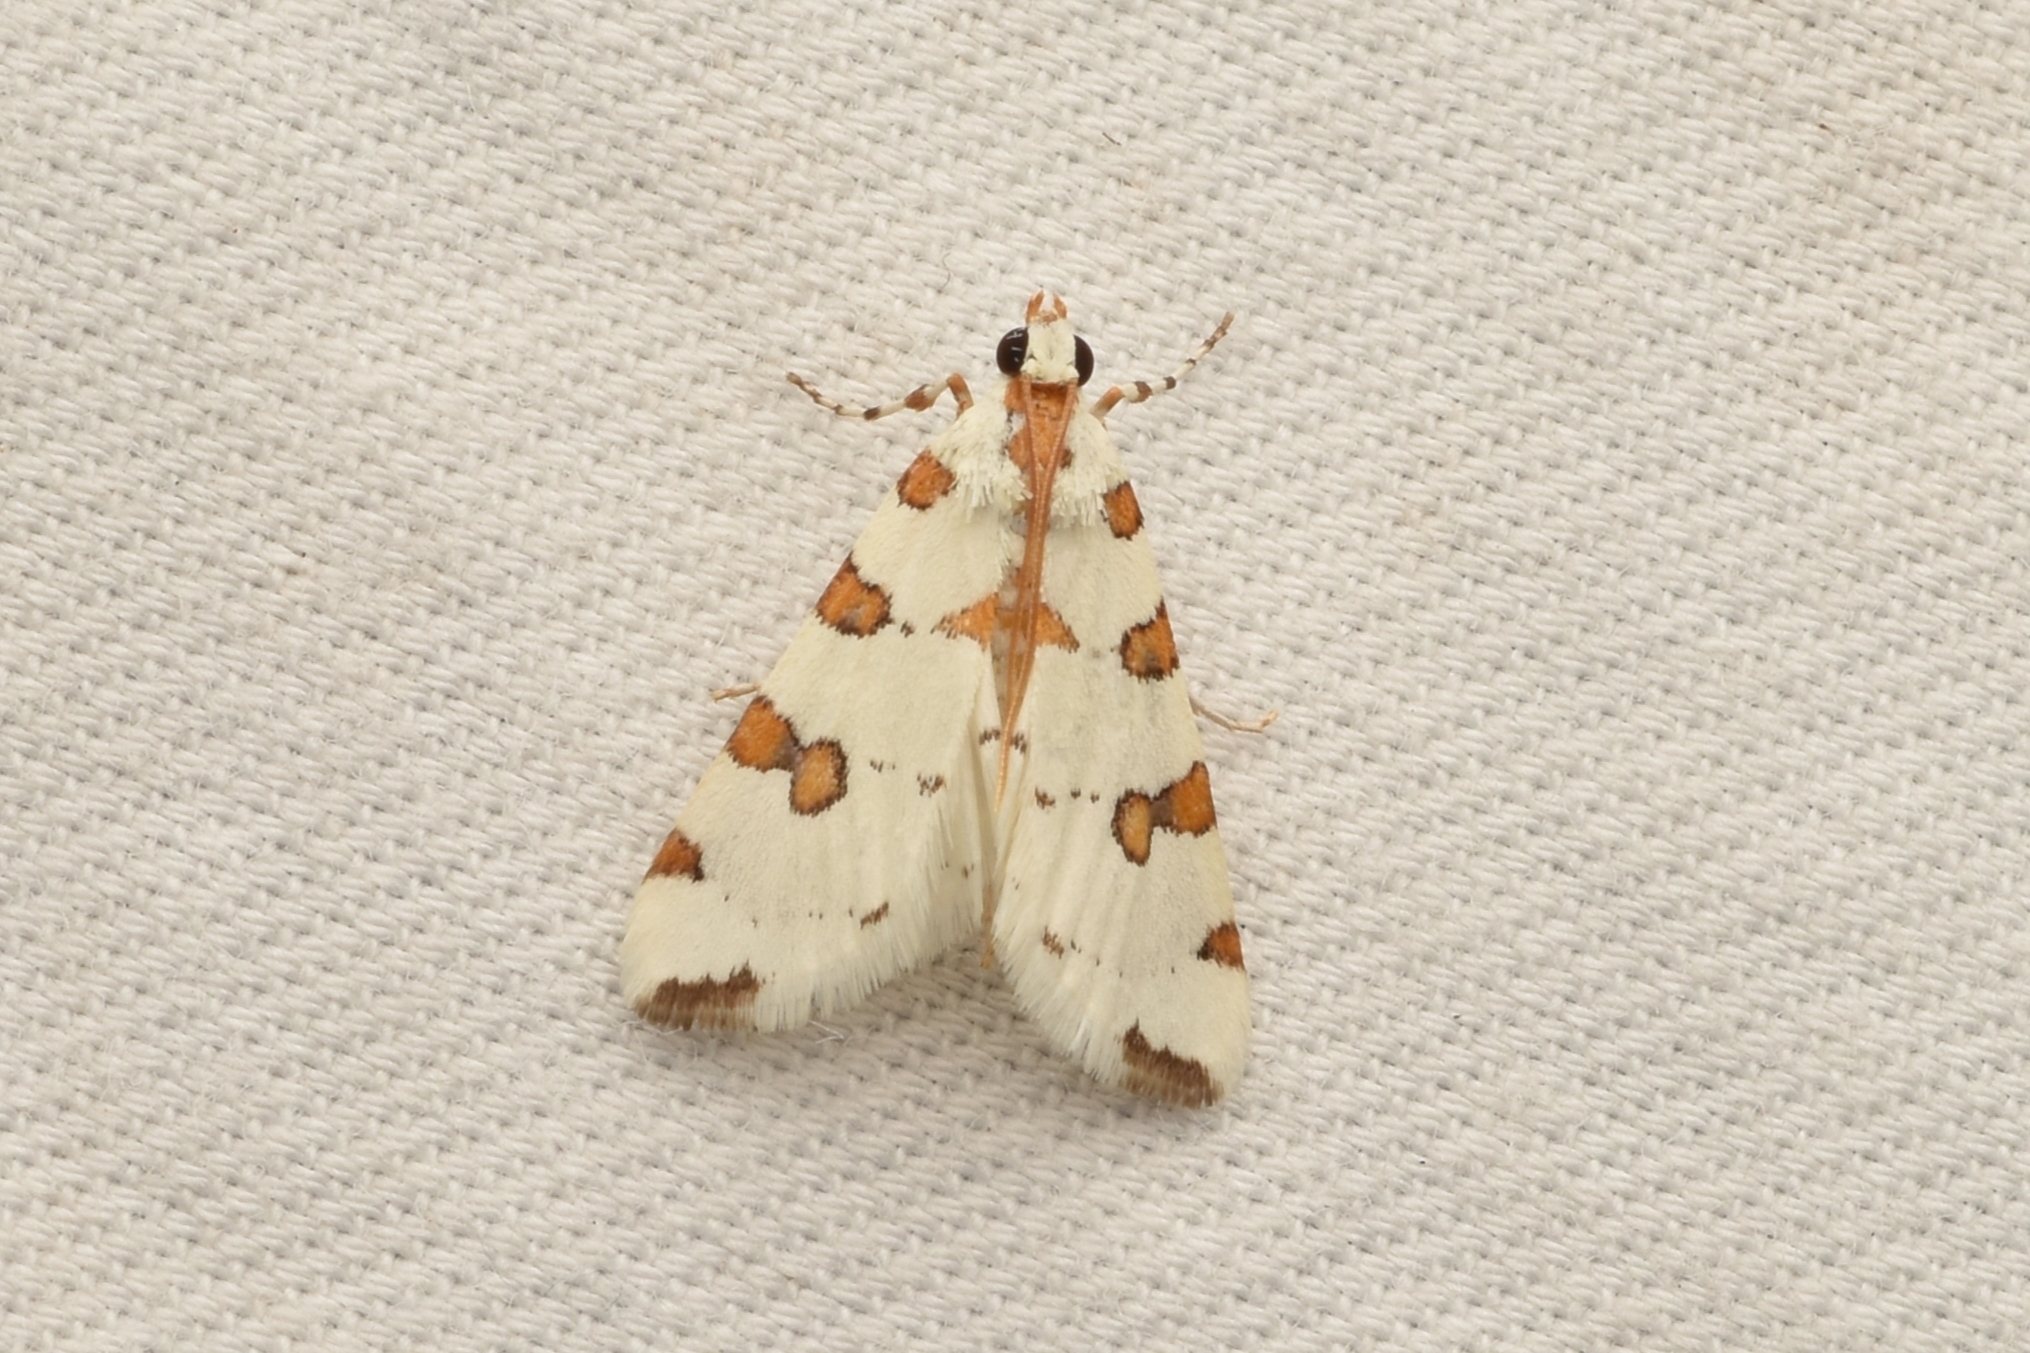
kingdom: Animalia
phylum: Arthropoda
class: Insecta
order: Lepidoptera
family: Crambidae
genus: Conchylodes
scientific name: Conchylodes
